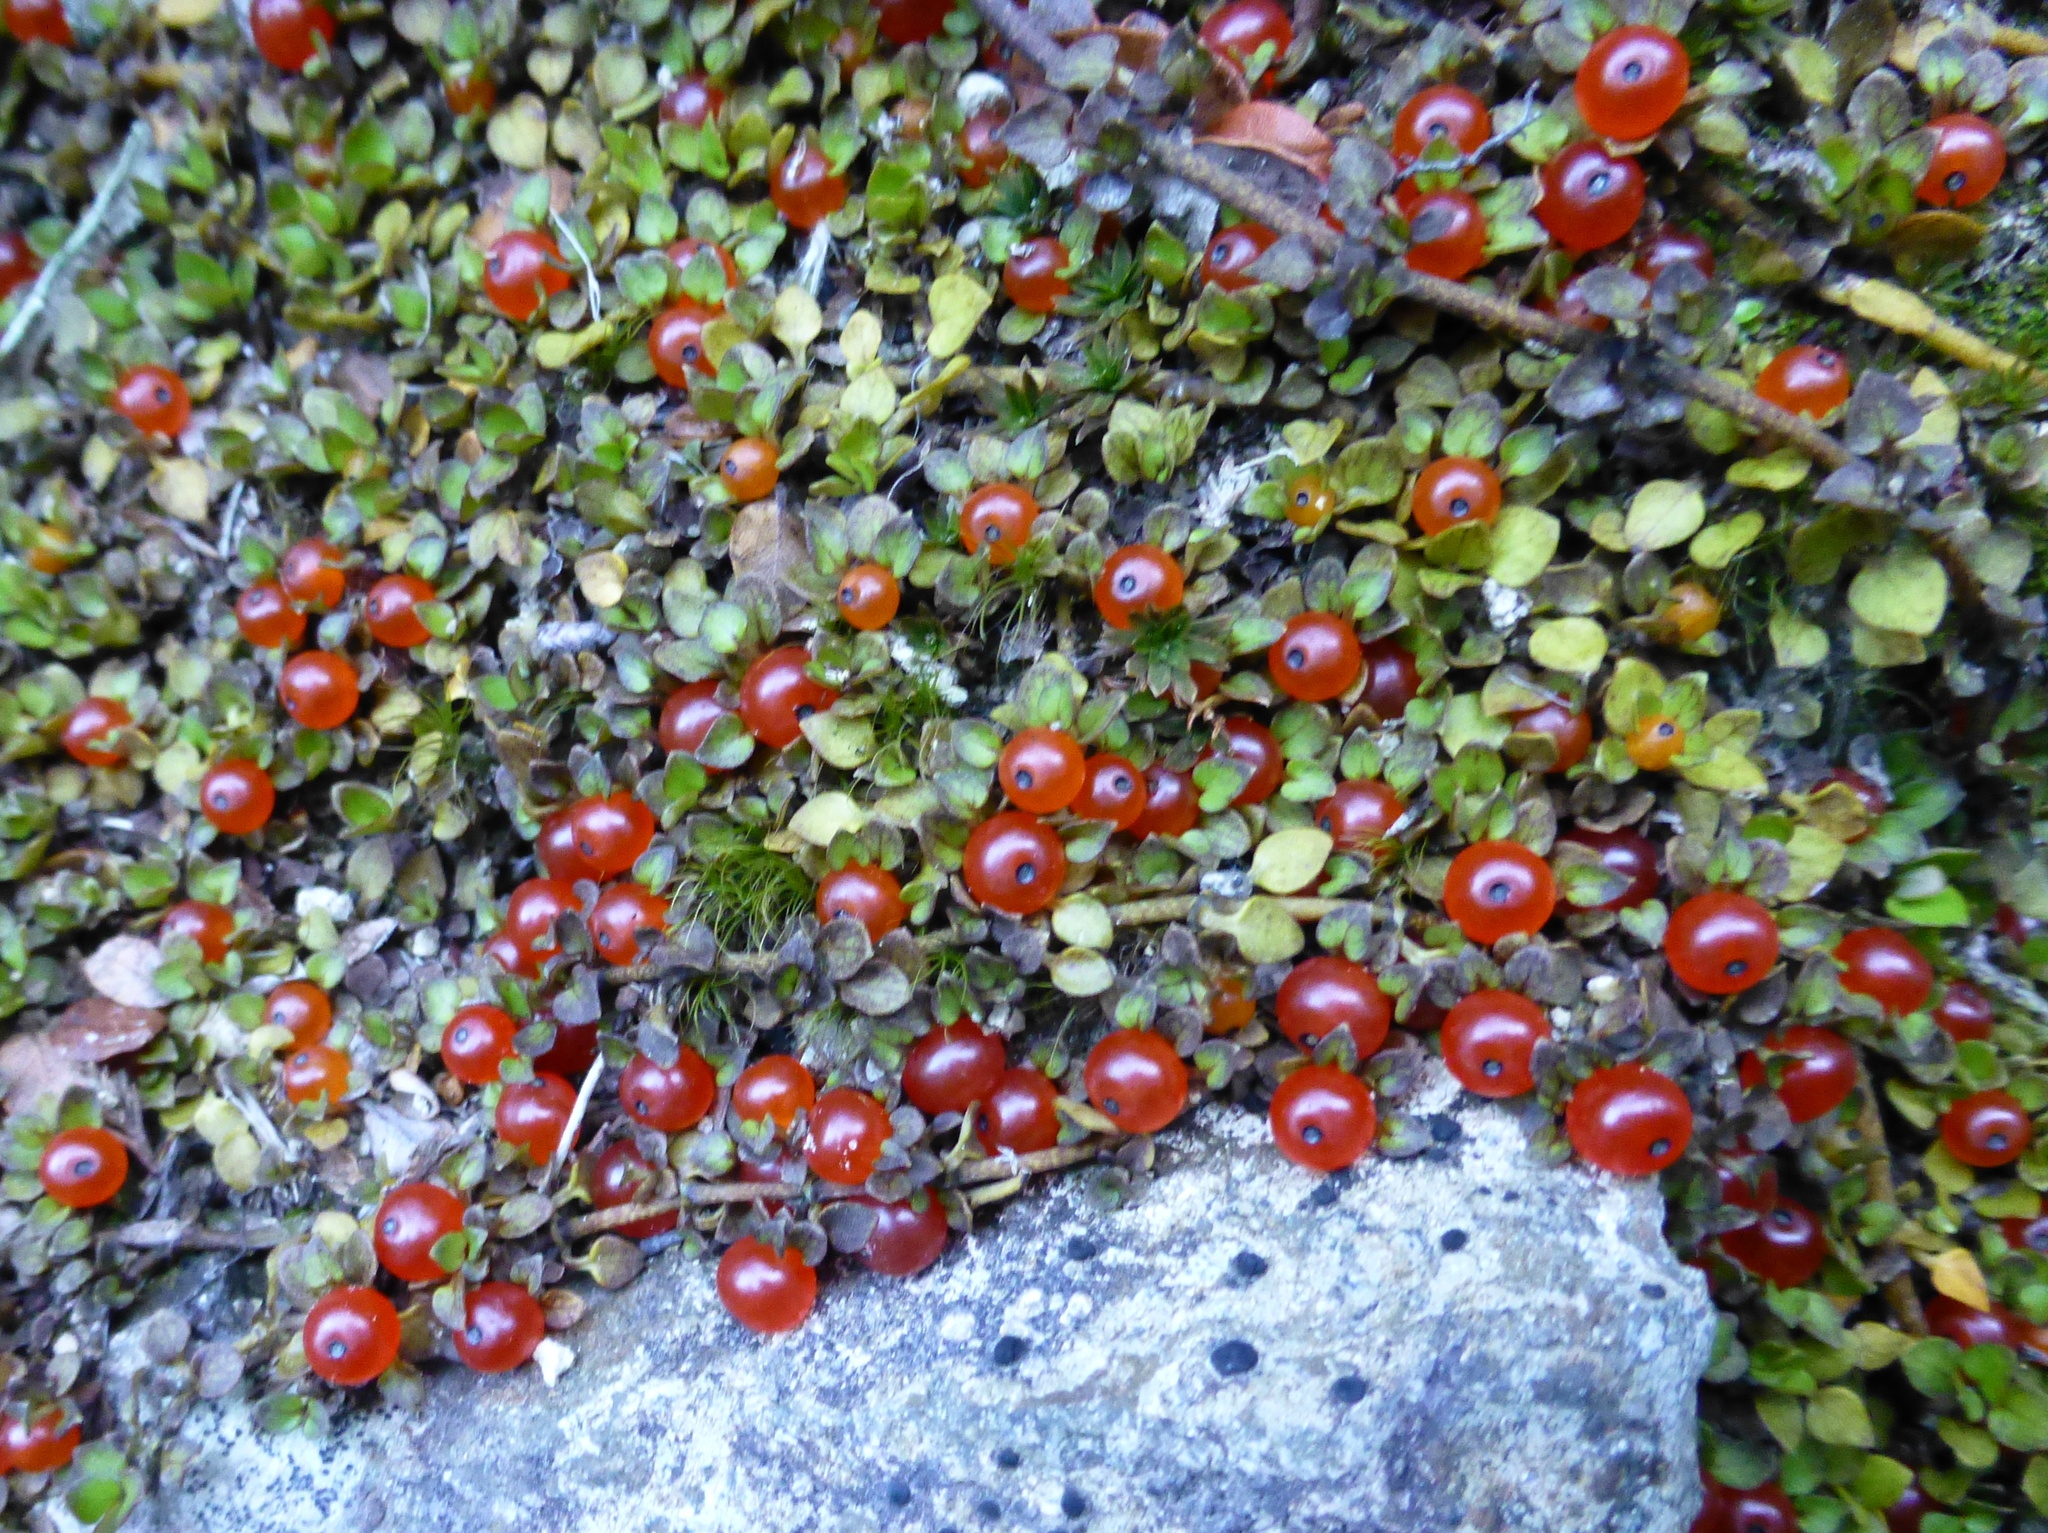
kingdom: Plantae
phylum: Tracheophyta
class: Magnoliopsida
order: Gentianales
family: Rubiaceae
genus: Nertera
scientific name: Nertera granadensis
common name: Beadplant
